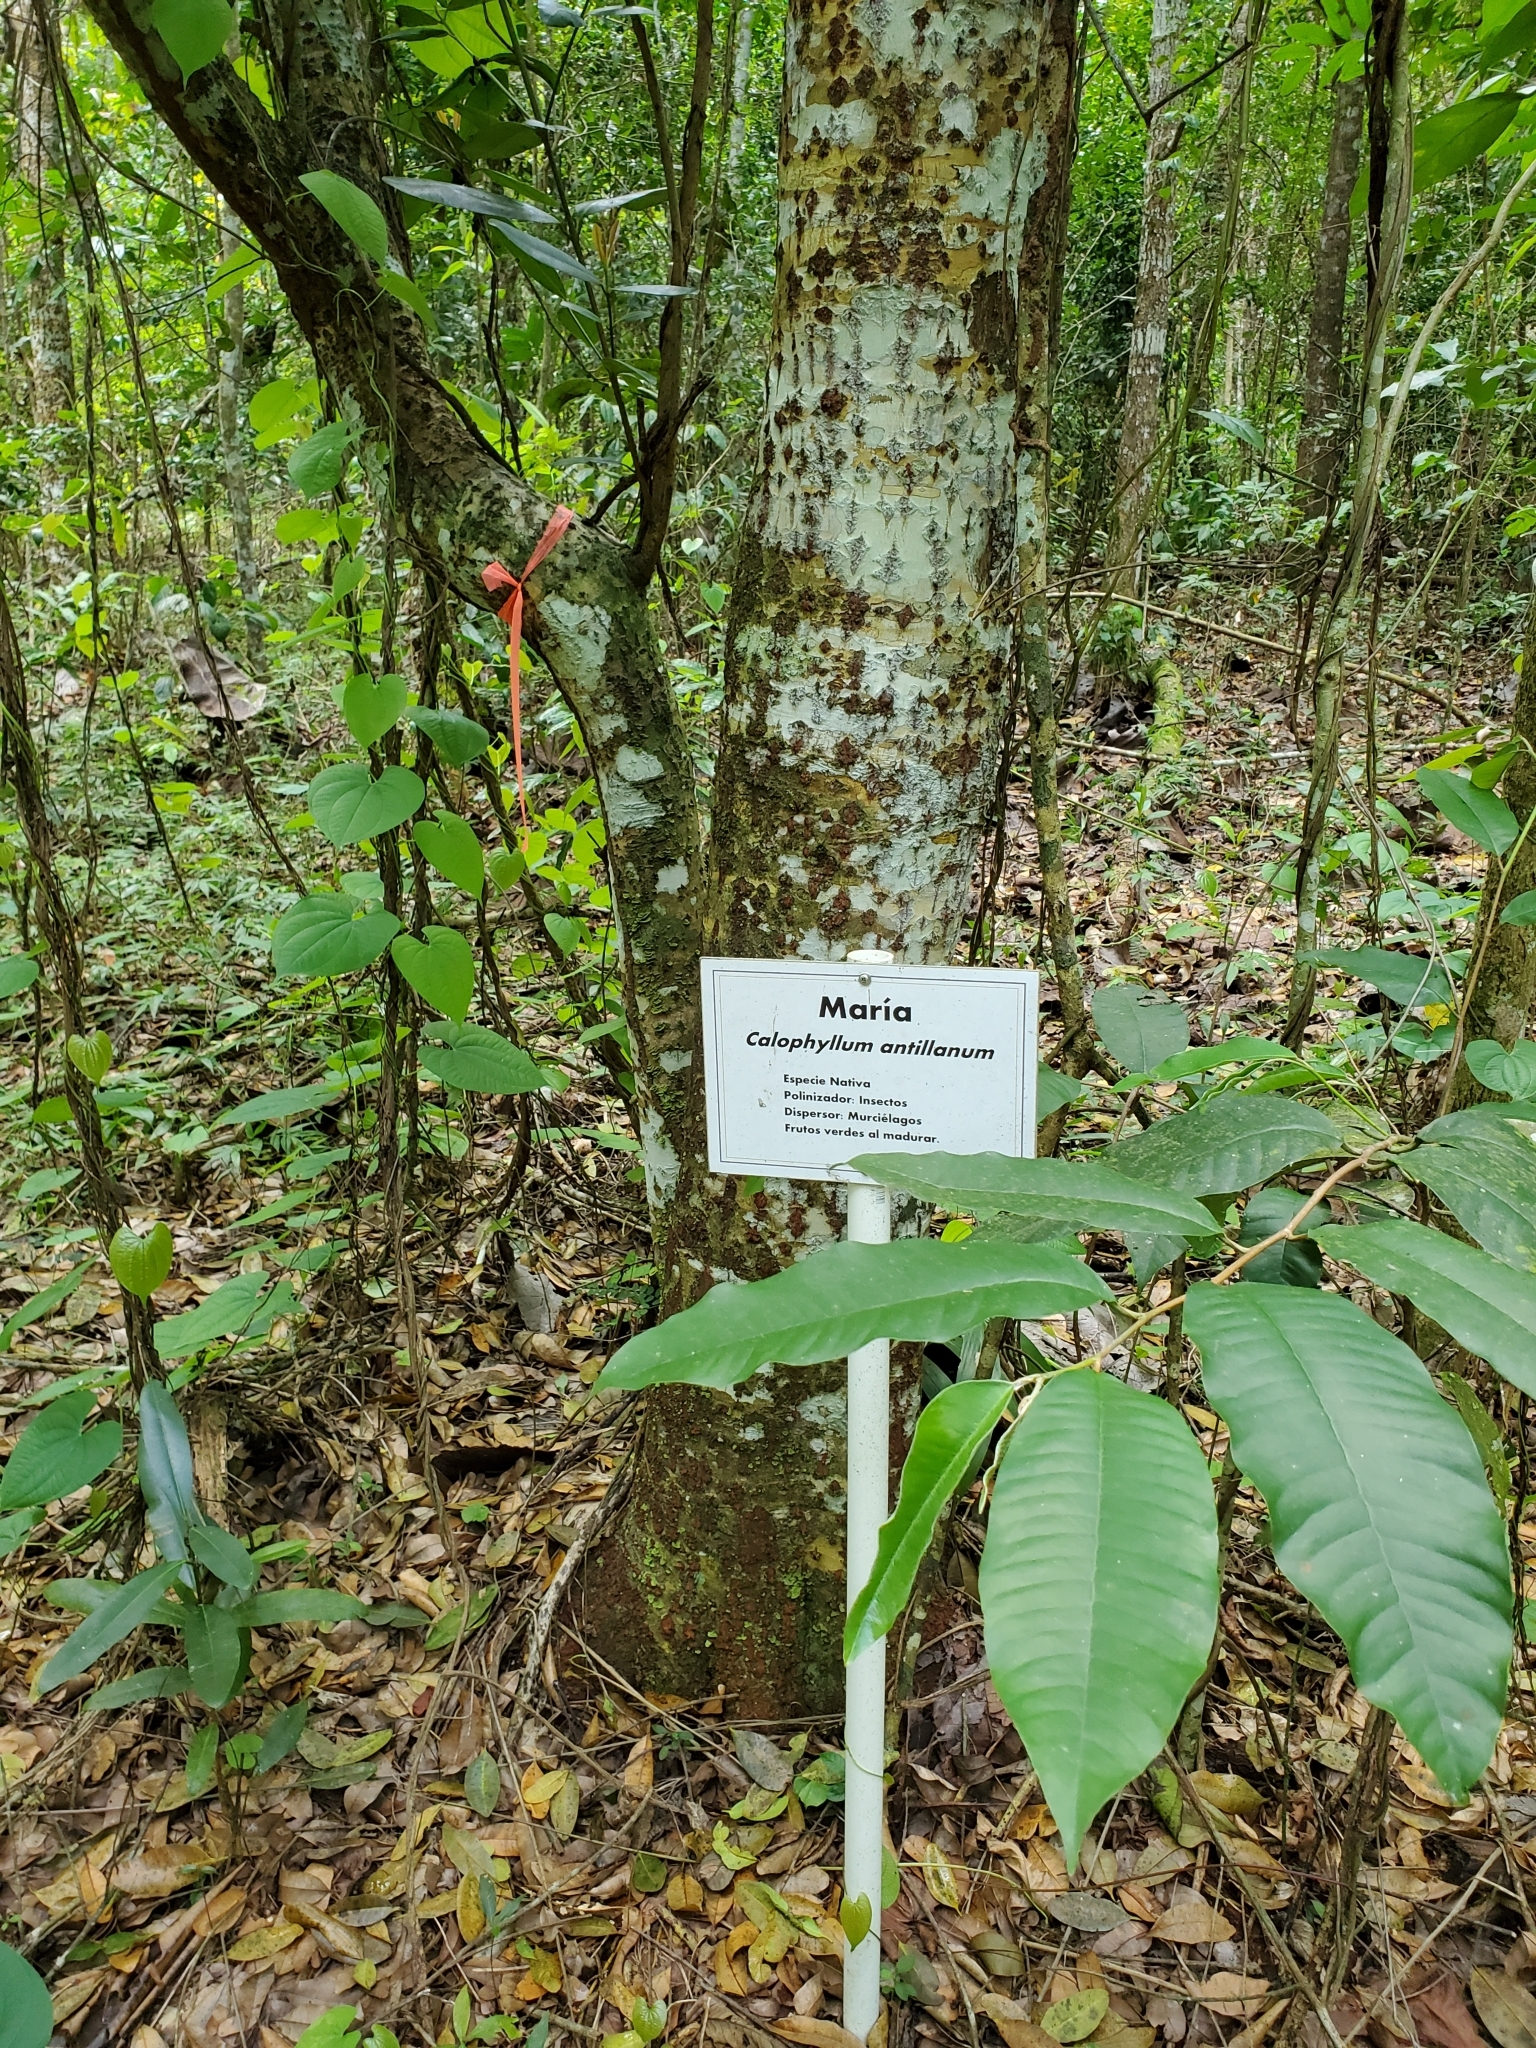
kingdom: Plantae
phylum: Tracheophyta
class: Magnoliopsida
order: Malpighiales
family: Calophyllaceae
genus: Calophyllum
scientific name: Calophyllum antillanum
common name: Santa maria-tree
